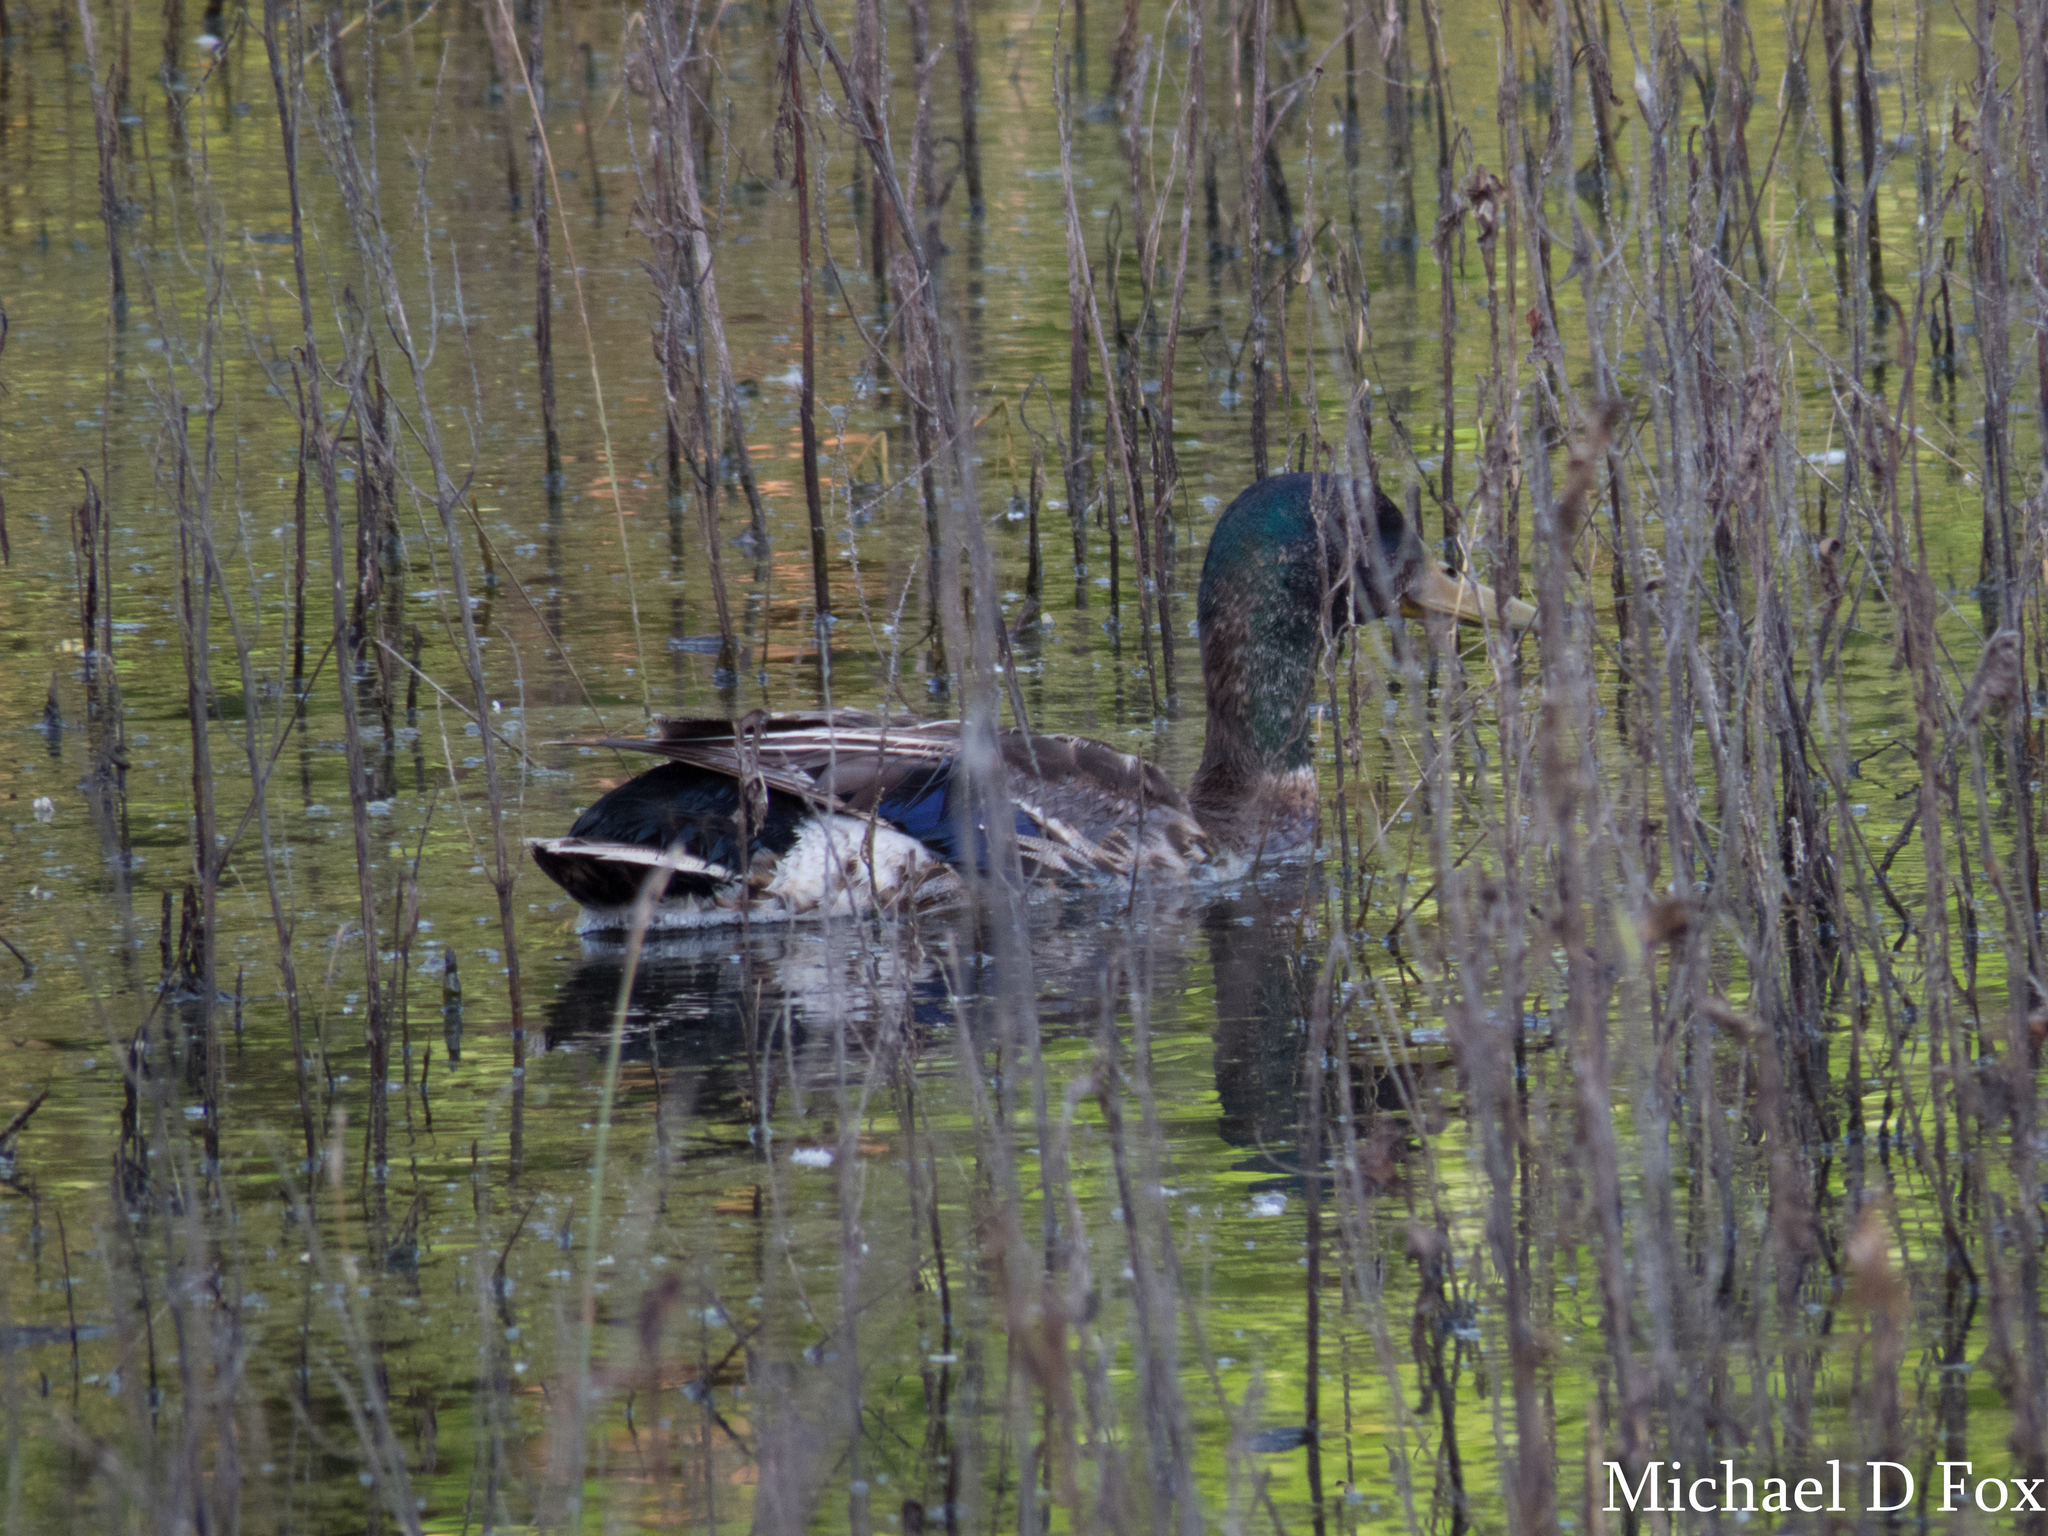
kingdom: Animalia
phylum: Chordata
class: Aves
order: Anseriformes
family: Anatidae
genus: Anas
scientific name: Anas platyrhynchos
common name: Mallard
